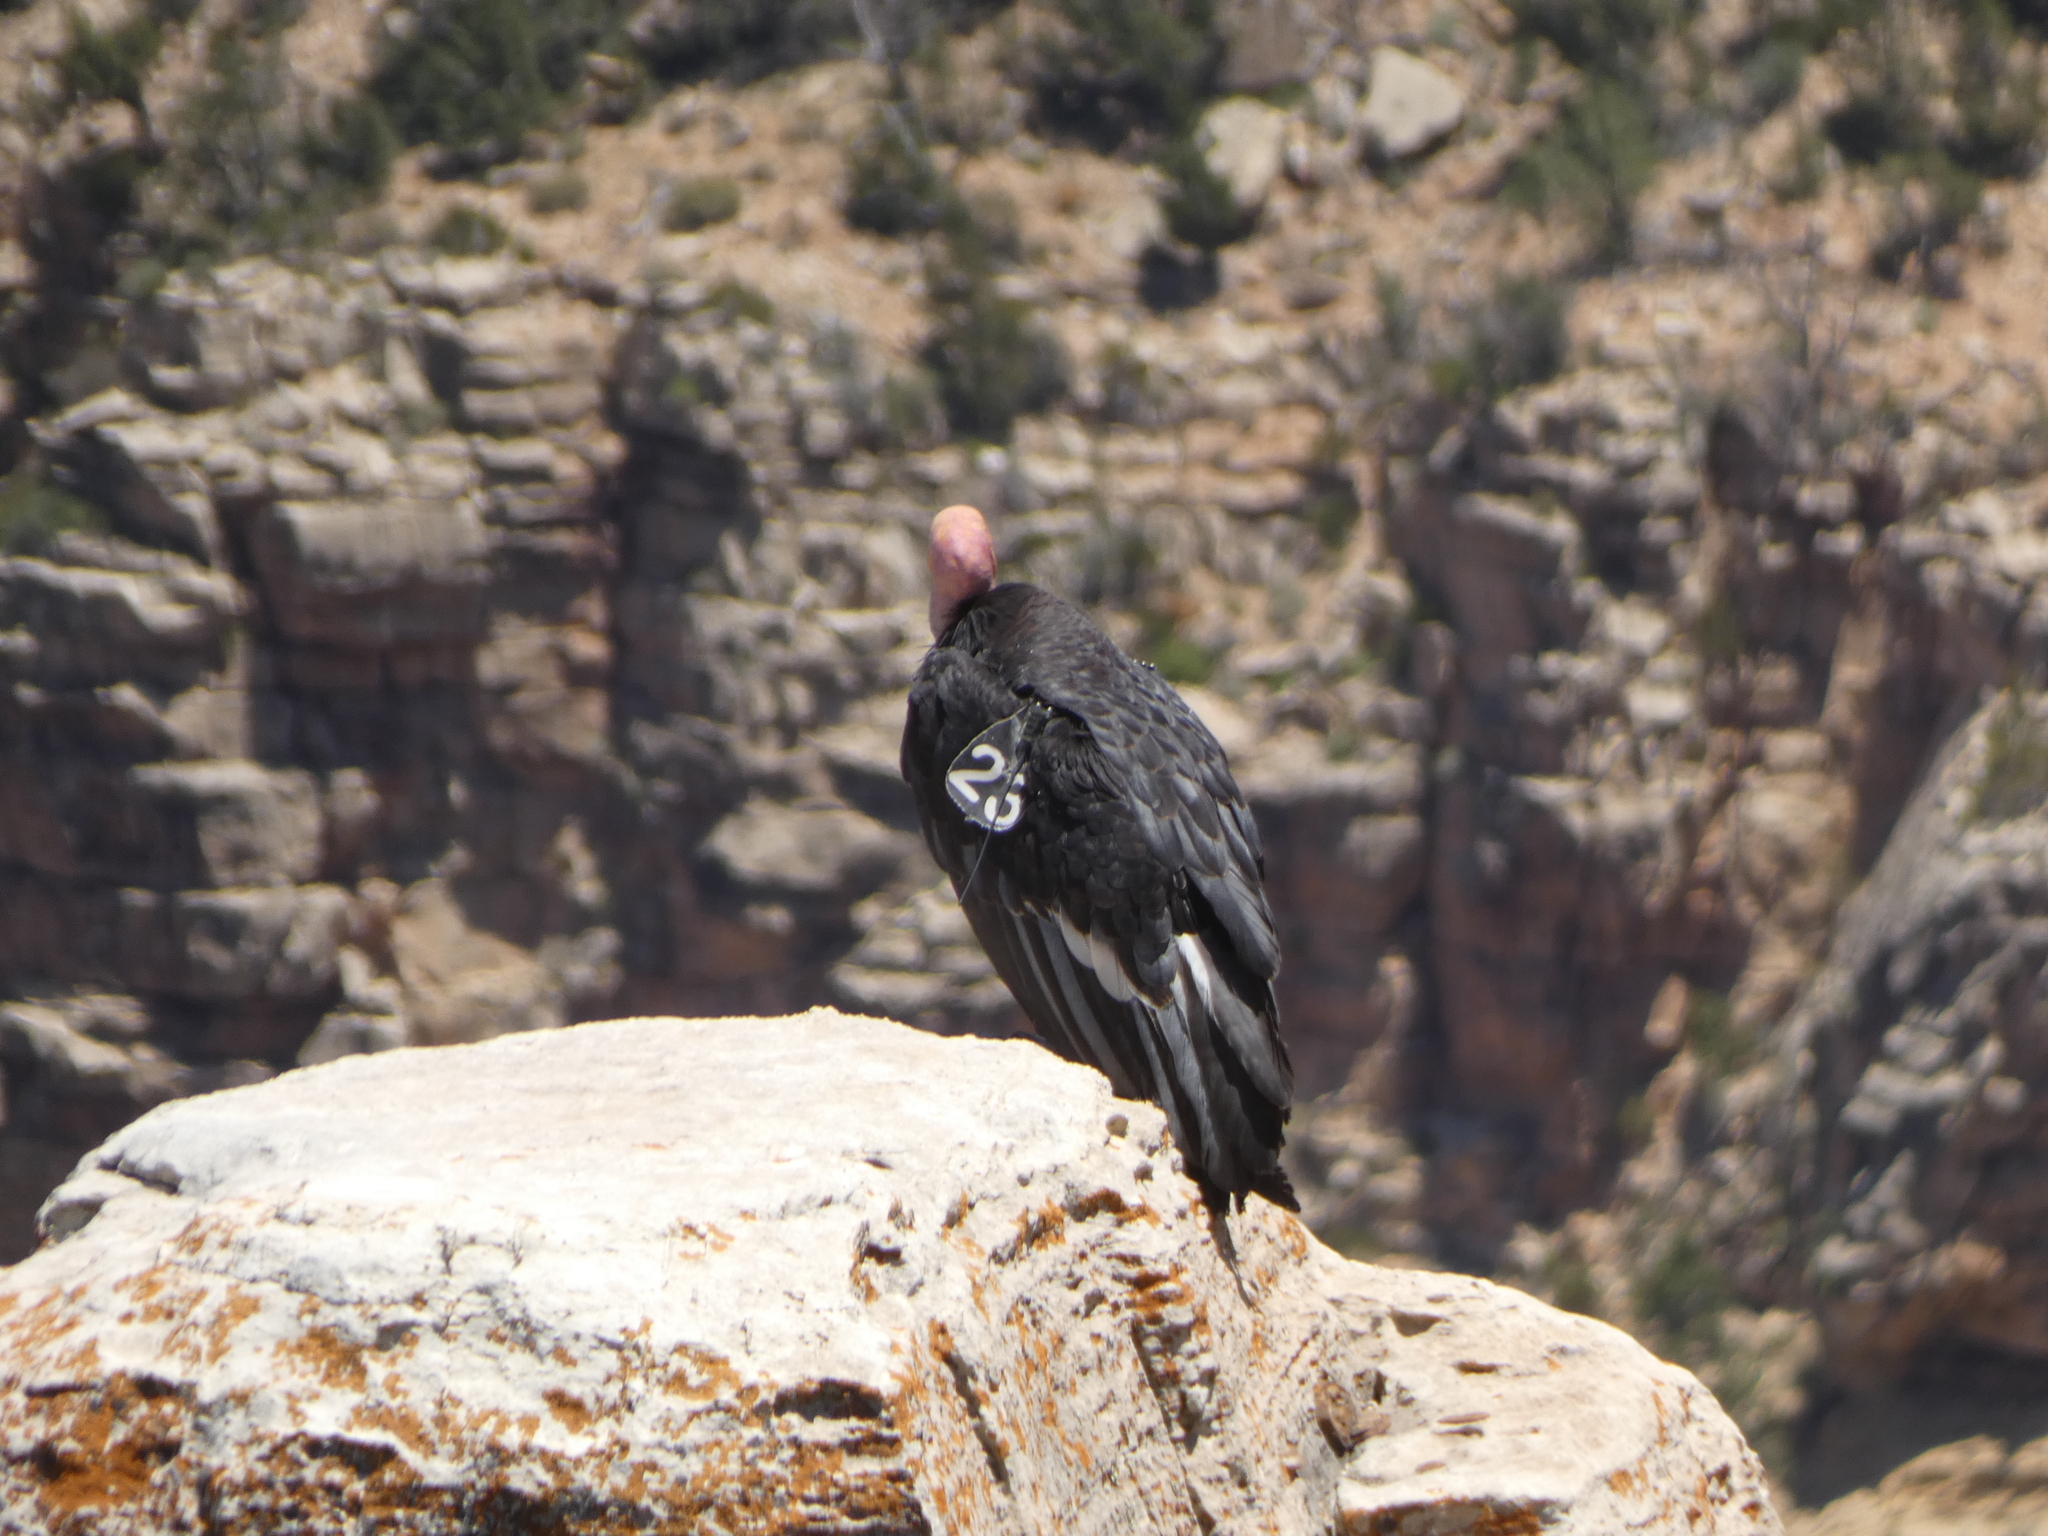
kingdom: Animalia
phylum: Chordata
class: Aves
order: Accipitriformes
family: Cathartidae
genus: Gymnogyps
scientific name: Gymnogyps californianus
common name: California condor
